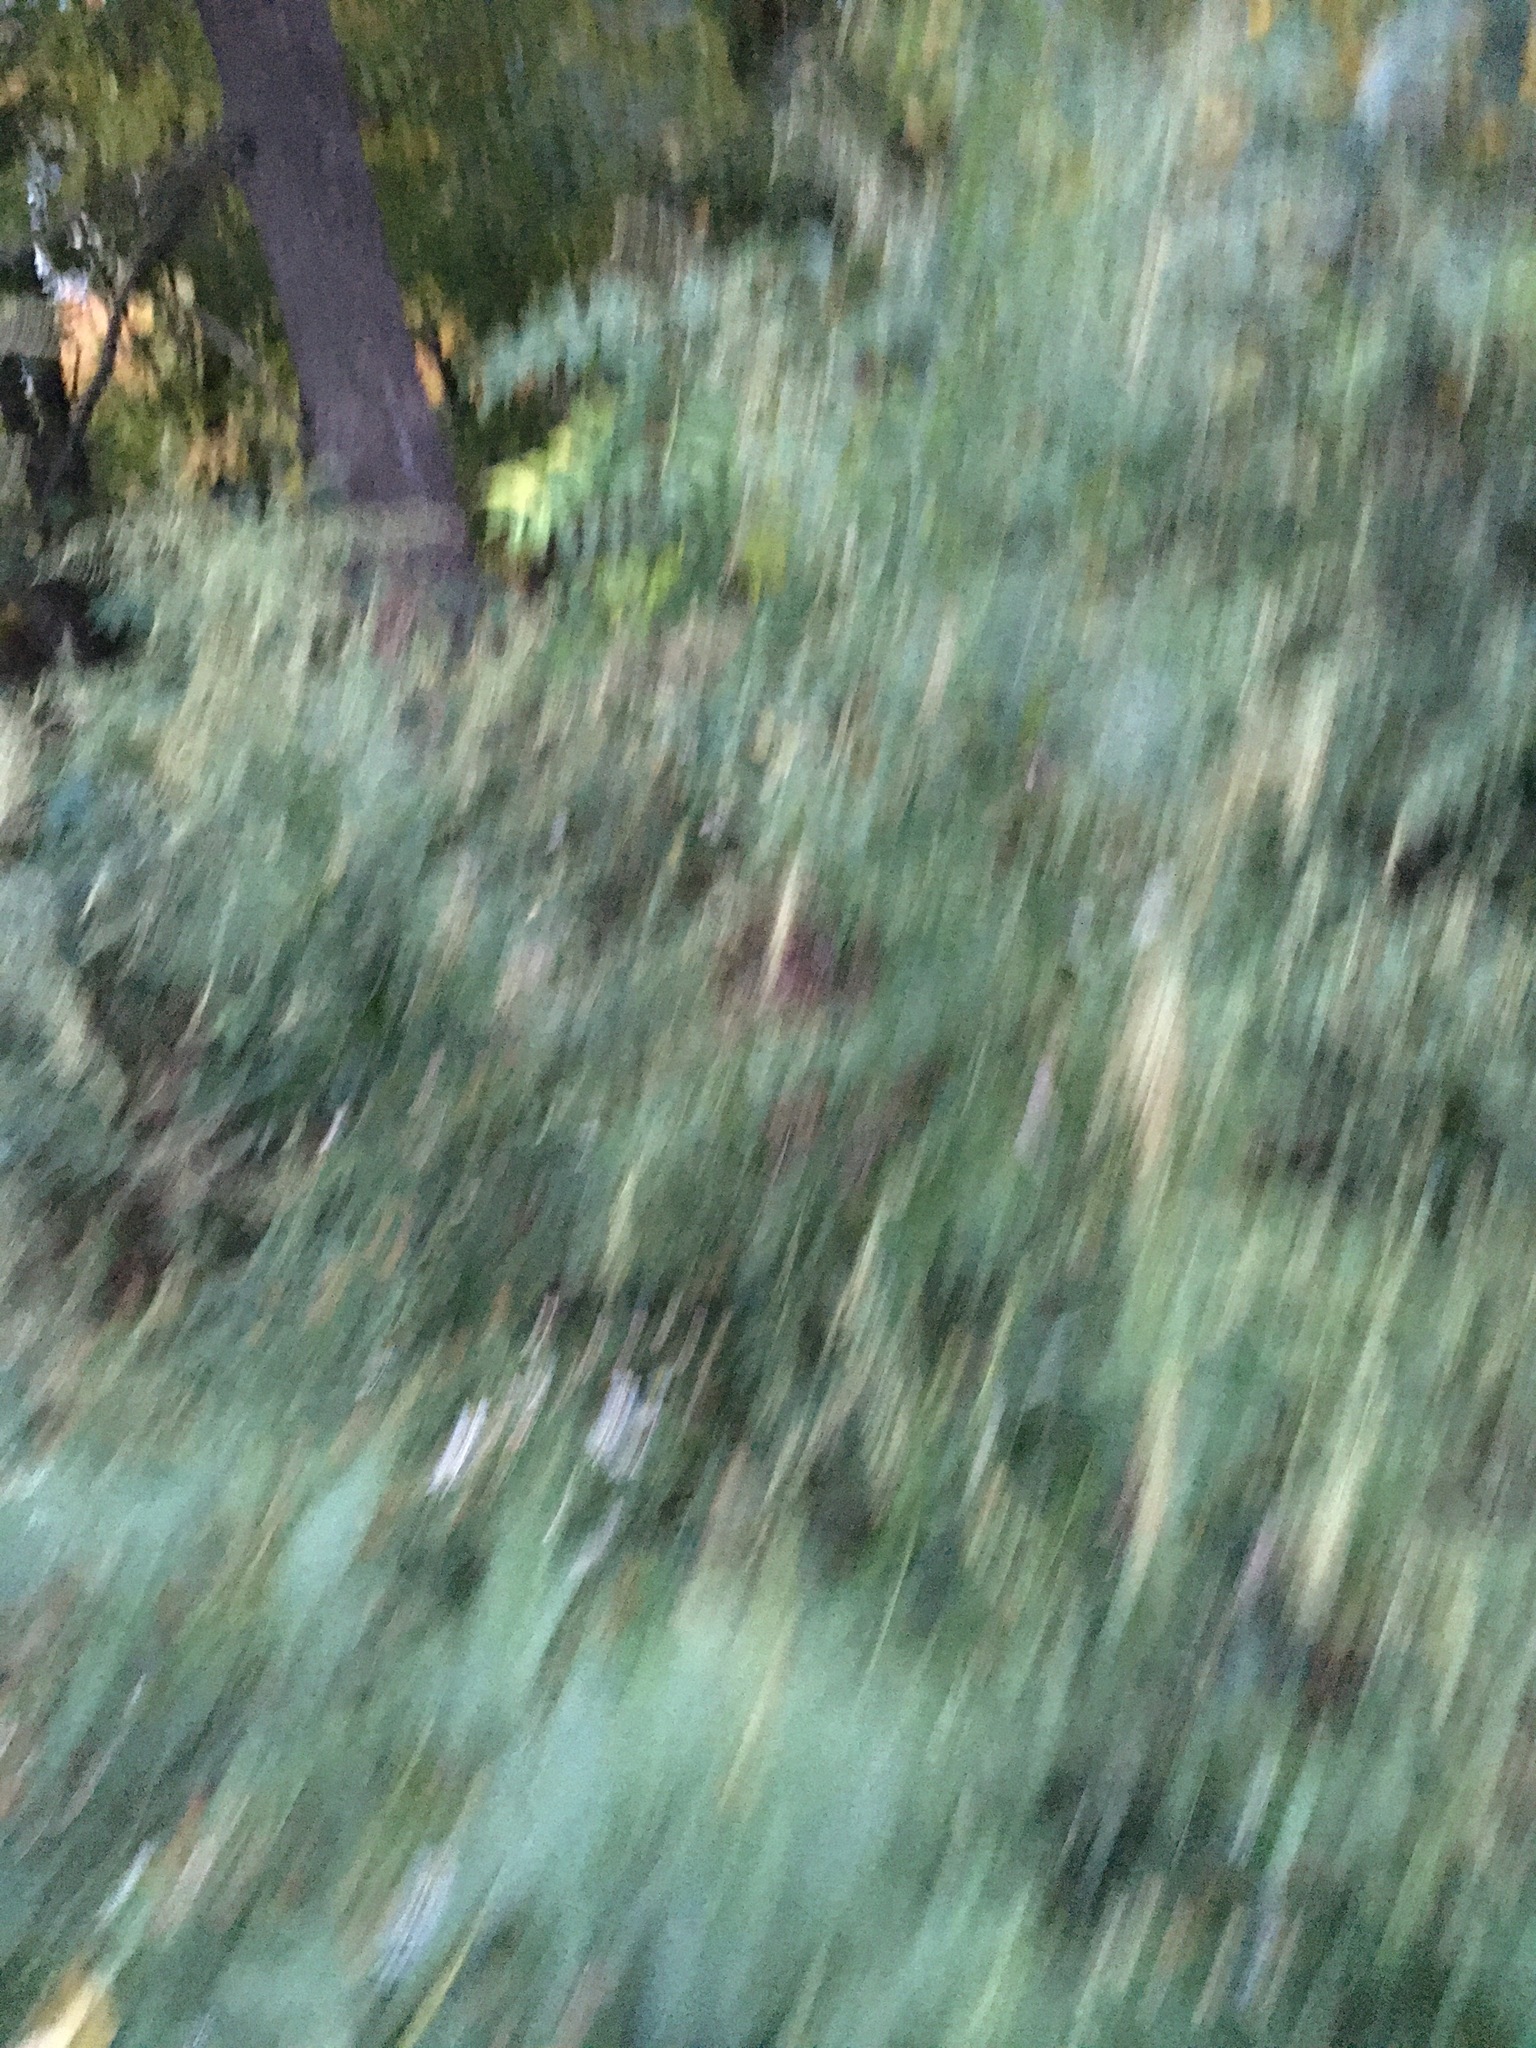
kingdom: Plantae
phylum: Tracheophyta
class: Magnoliopsida
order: Asterales
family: Asteraceae
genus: Artemisia
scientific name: Artemisia vulgaris
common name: Mugwort
